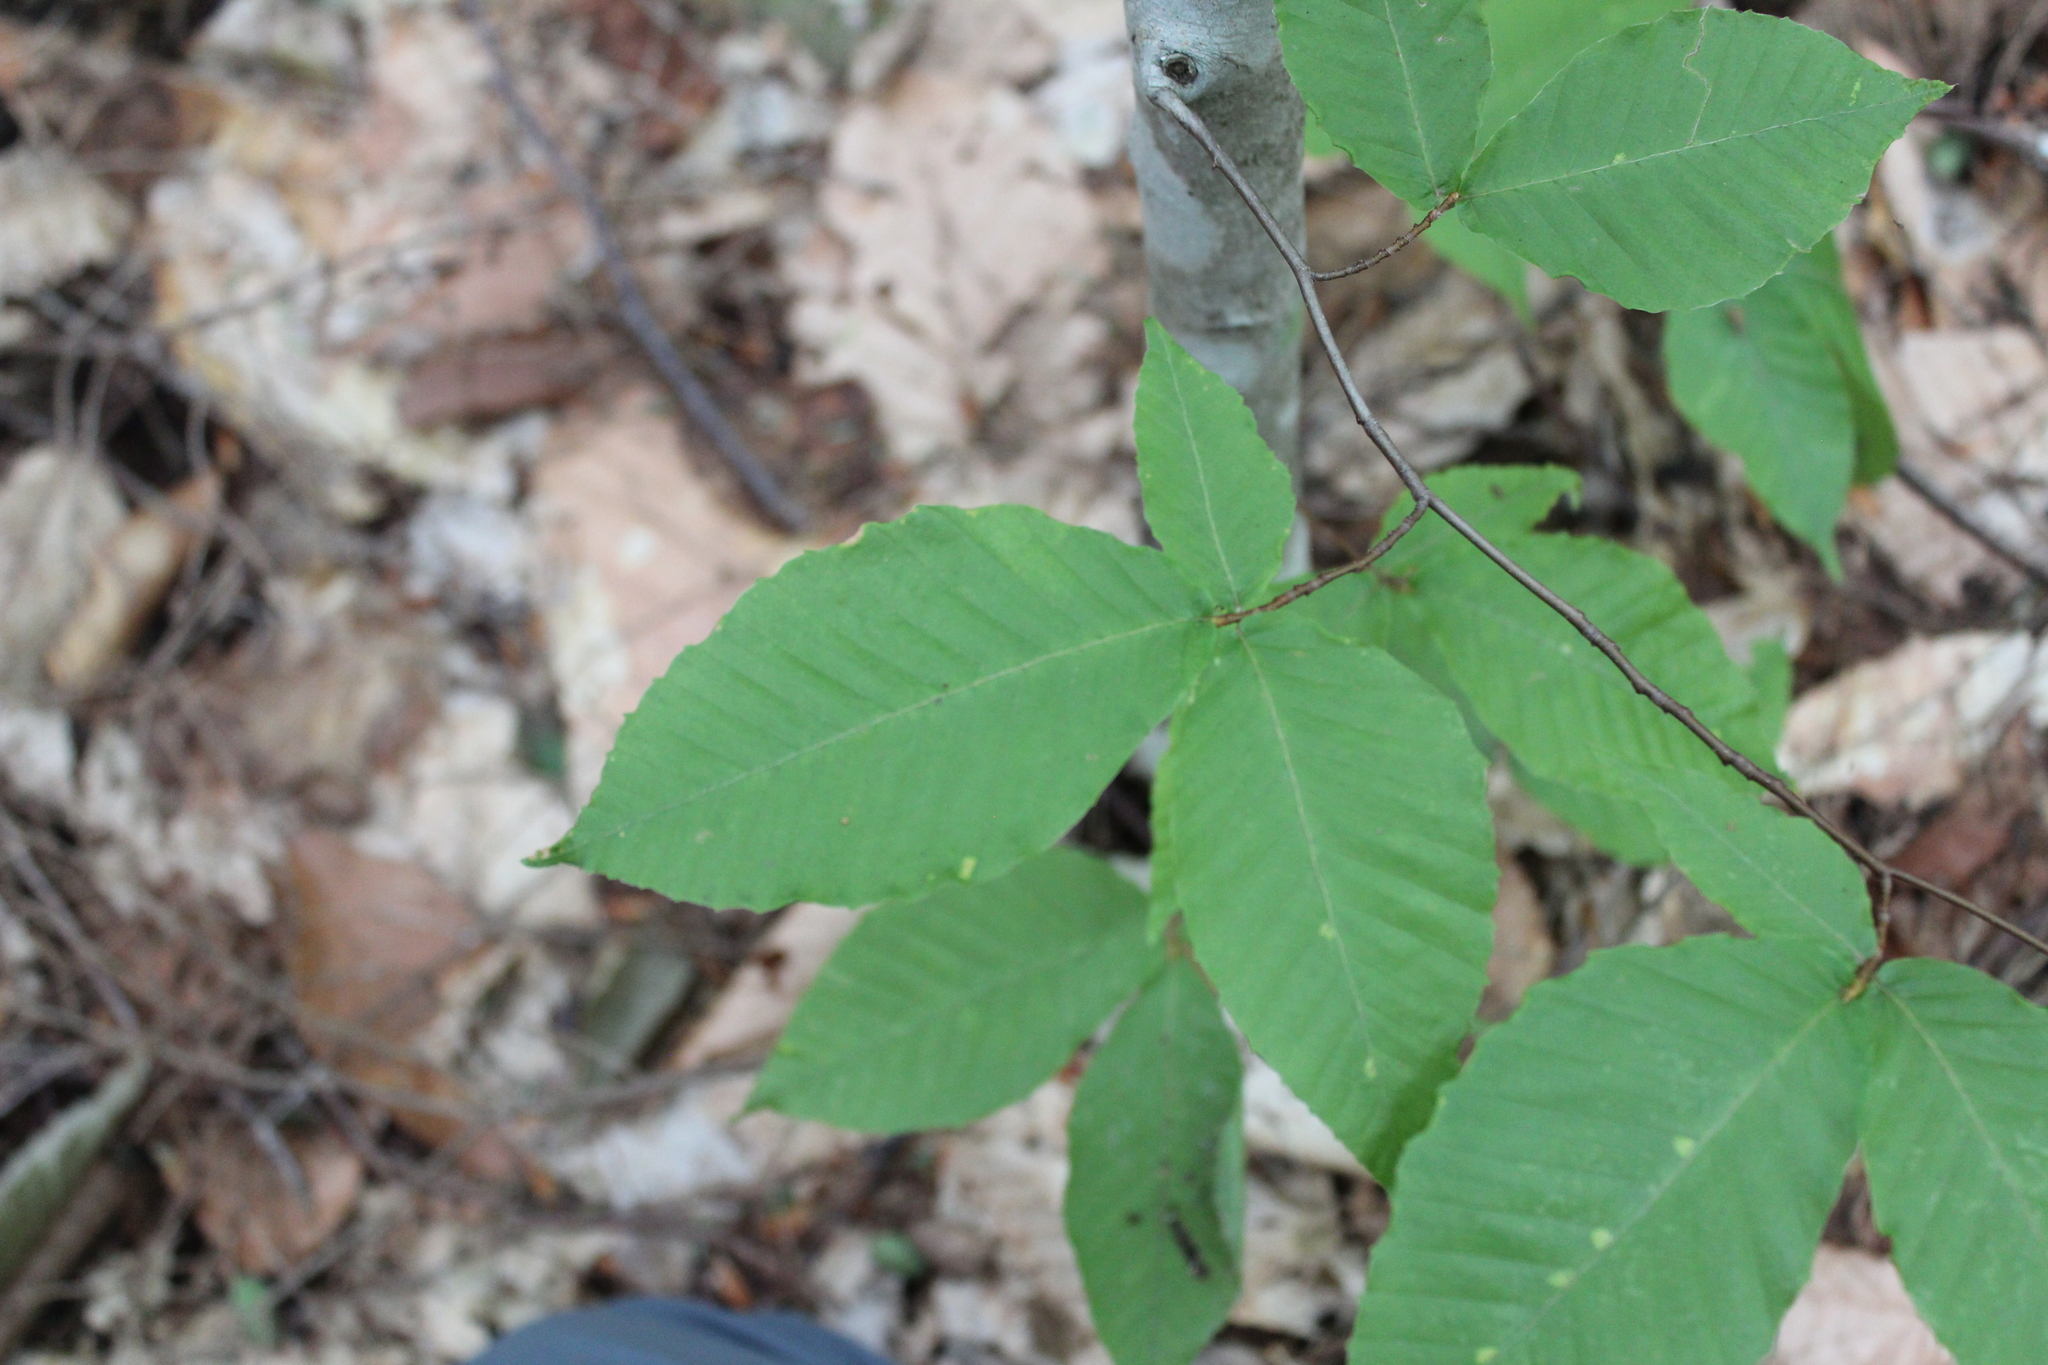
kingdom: Plantae
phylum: Tracheophyta
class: Magnoliopsida
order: Fagales
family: Fagaceae
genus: Fagus
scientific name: Fagus grandifolia
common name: American beech
